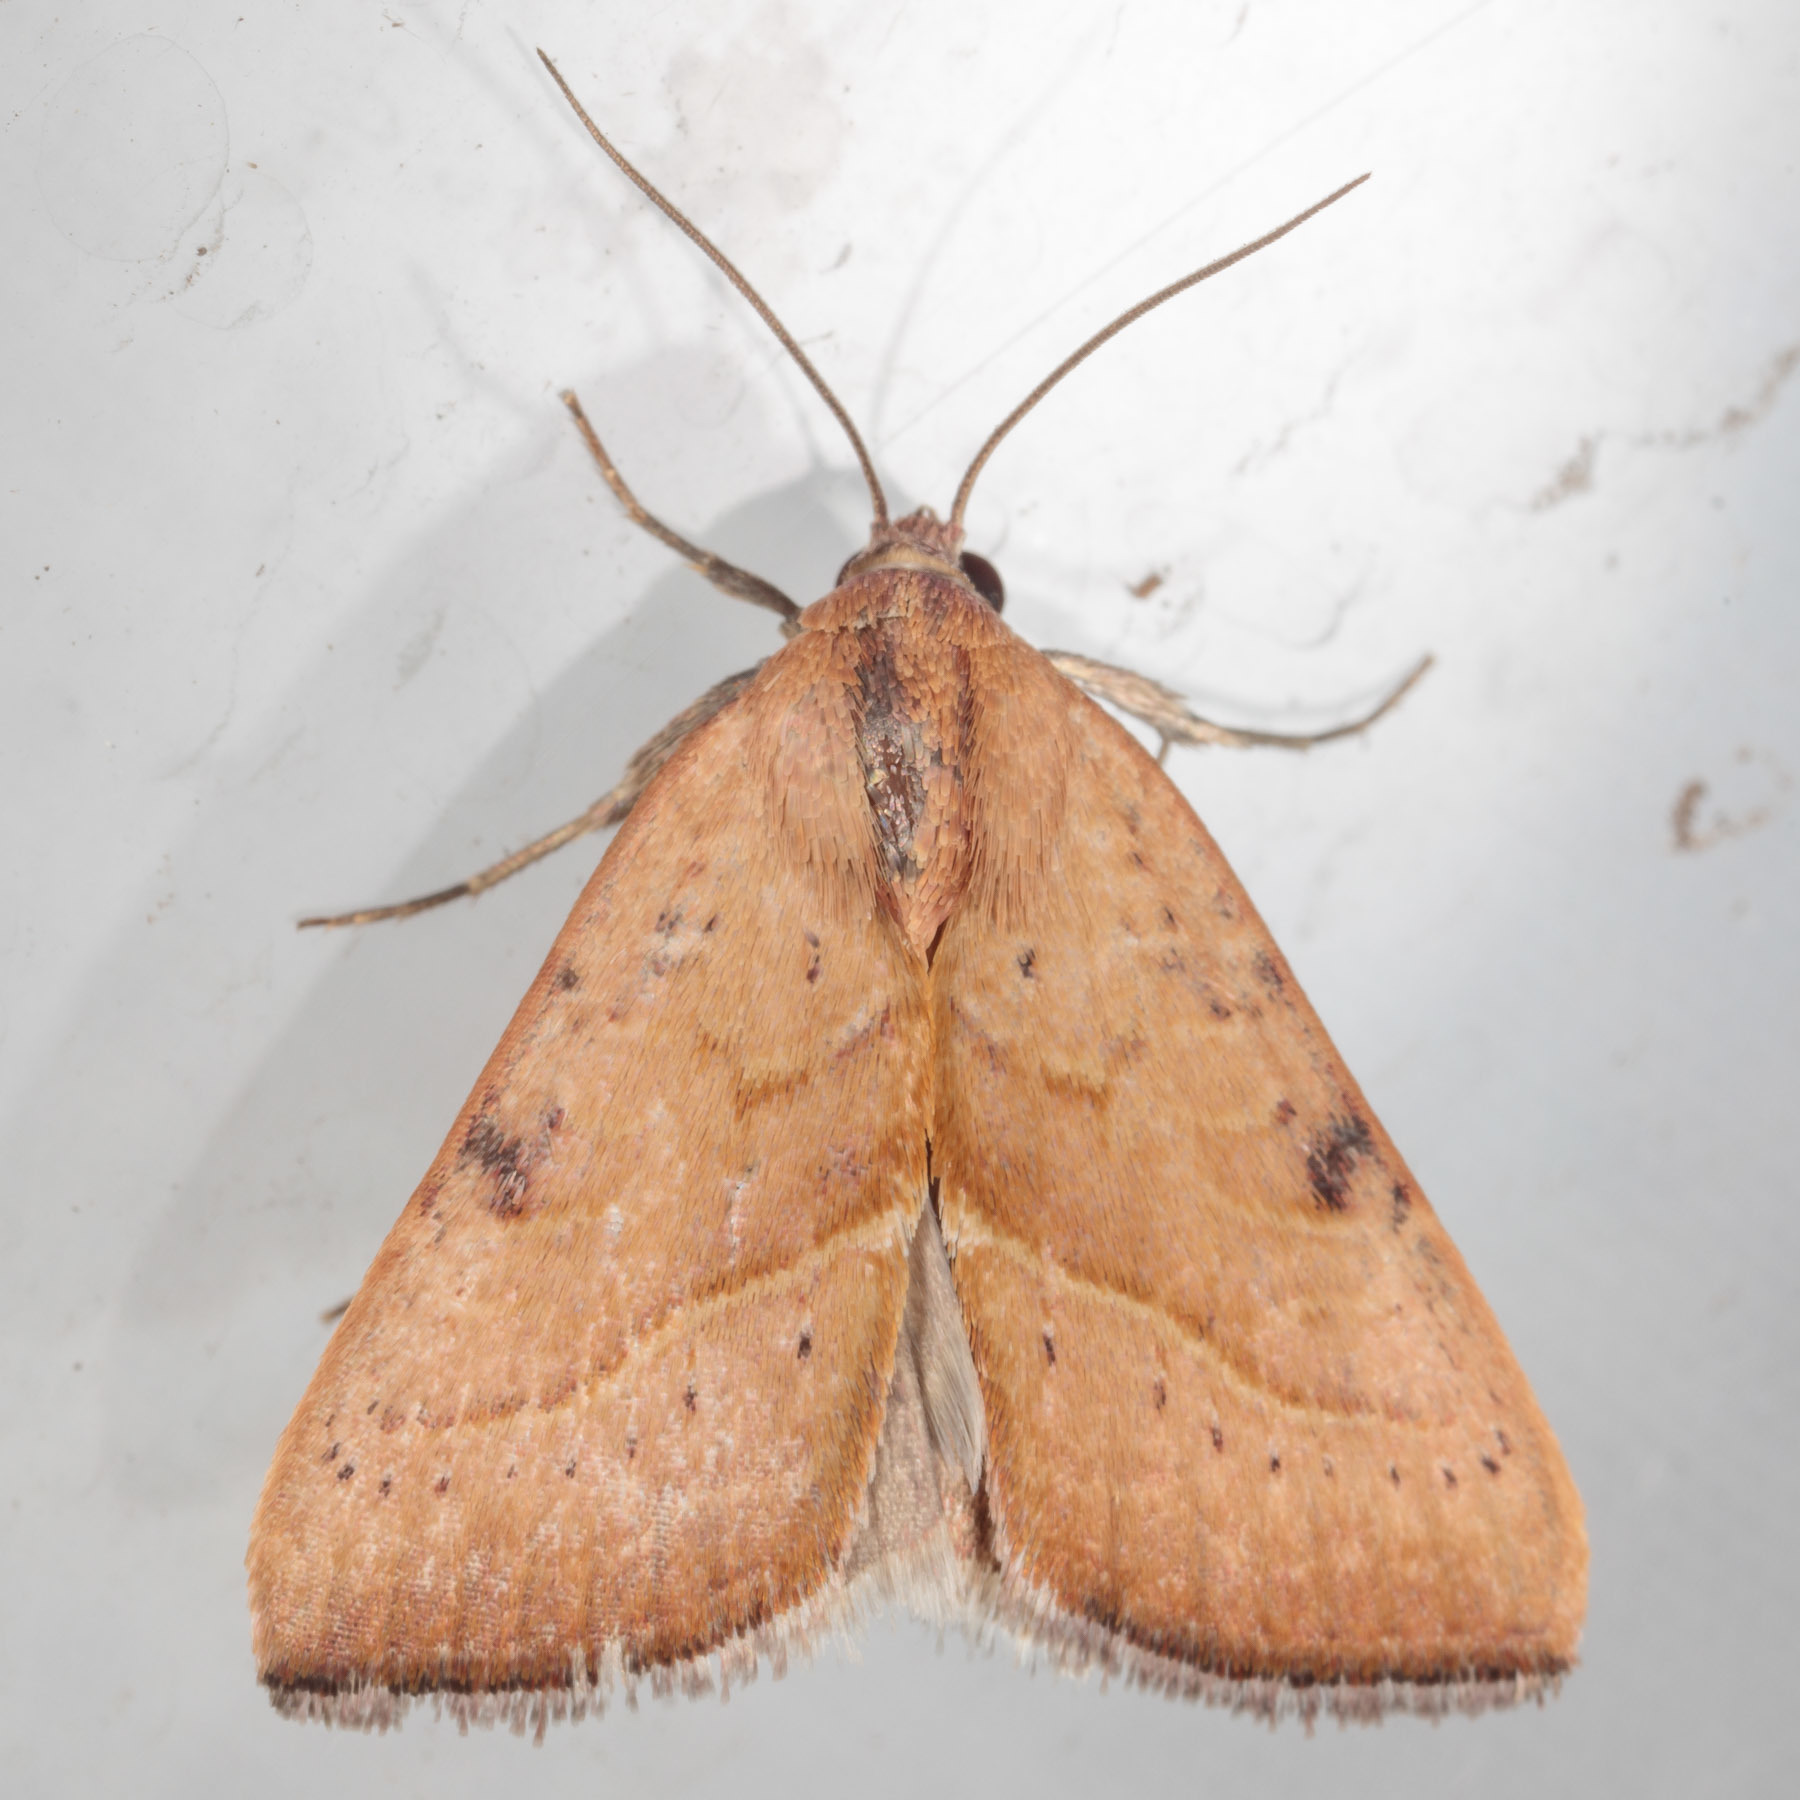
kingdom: Animalia
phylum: Arthropoda
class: Insecta
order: Lepidoptera
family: Noctuidae
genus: Galgula
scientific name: Galgula partita
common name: Wedgeling
